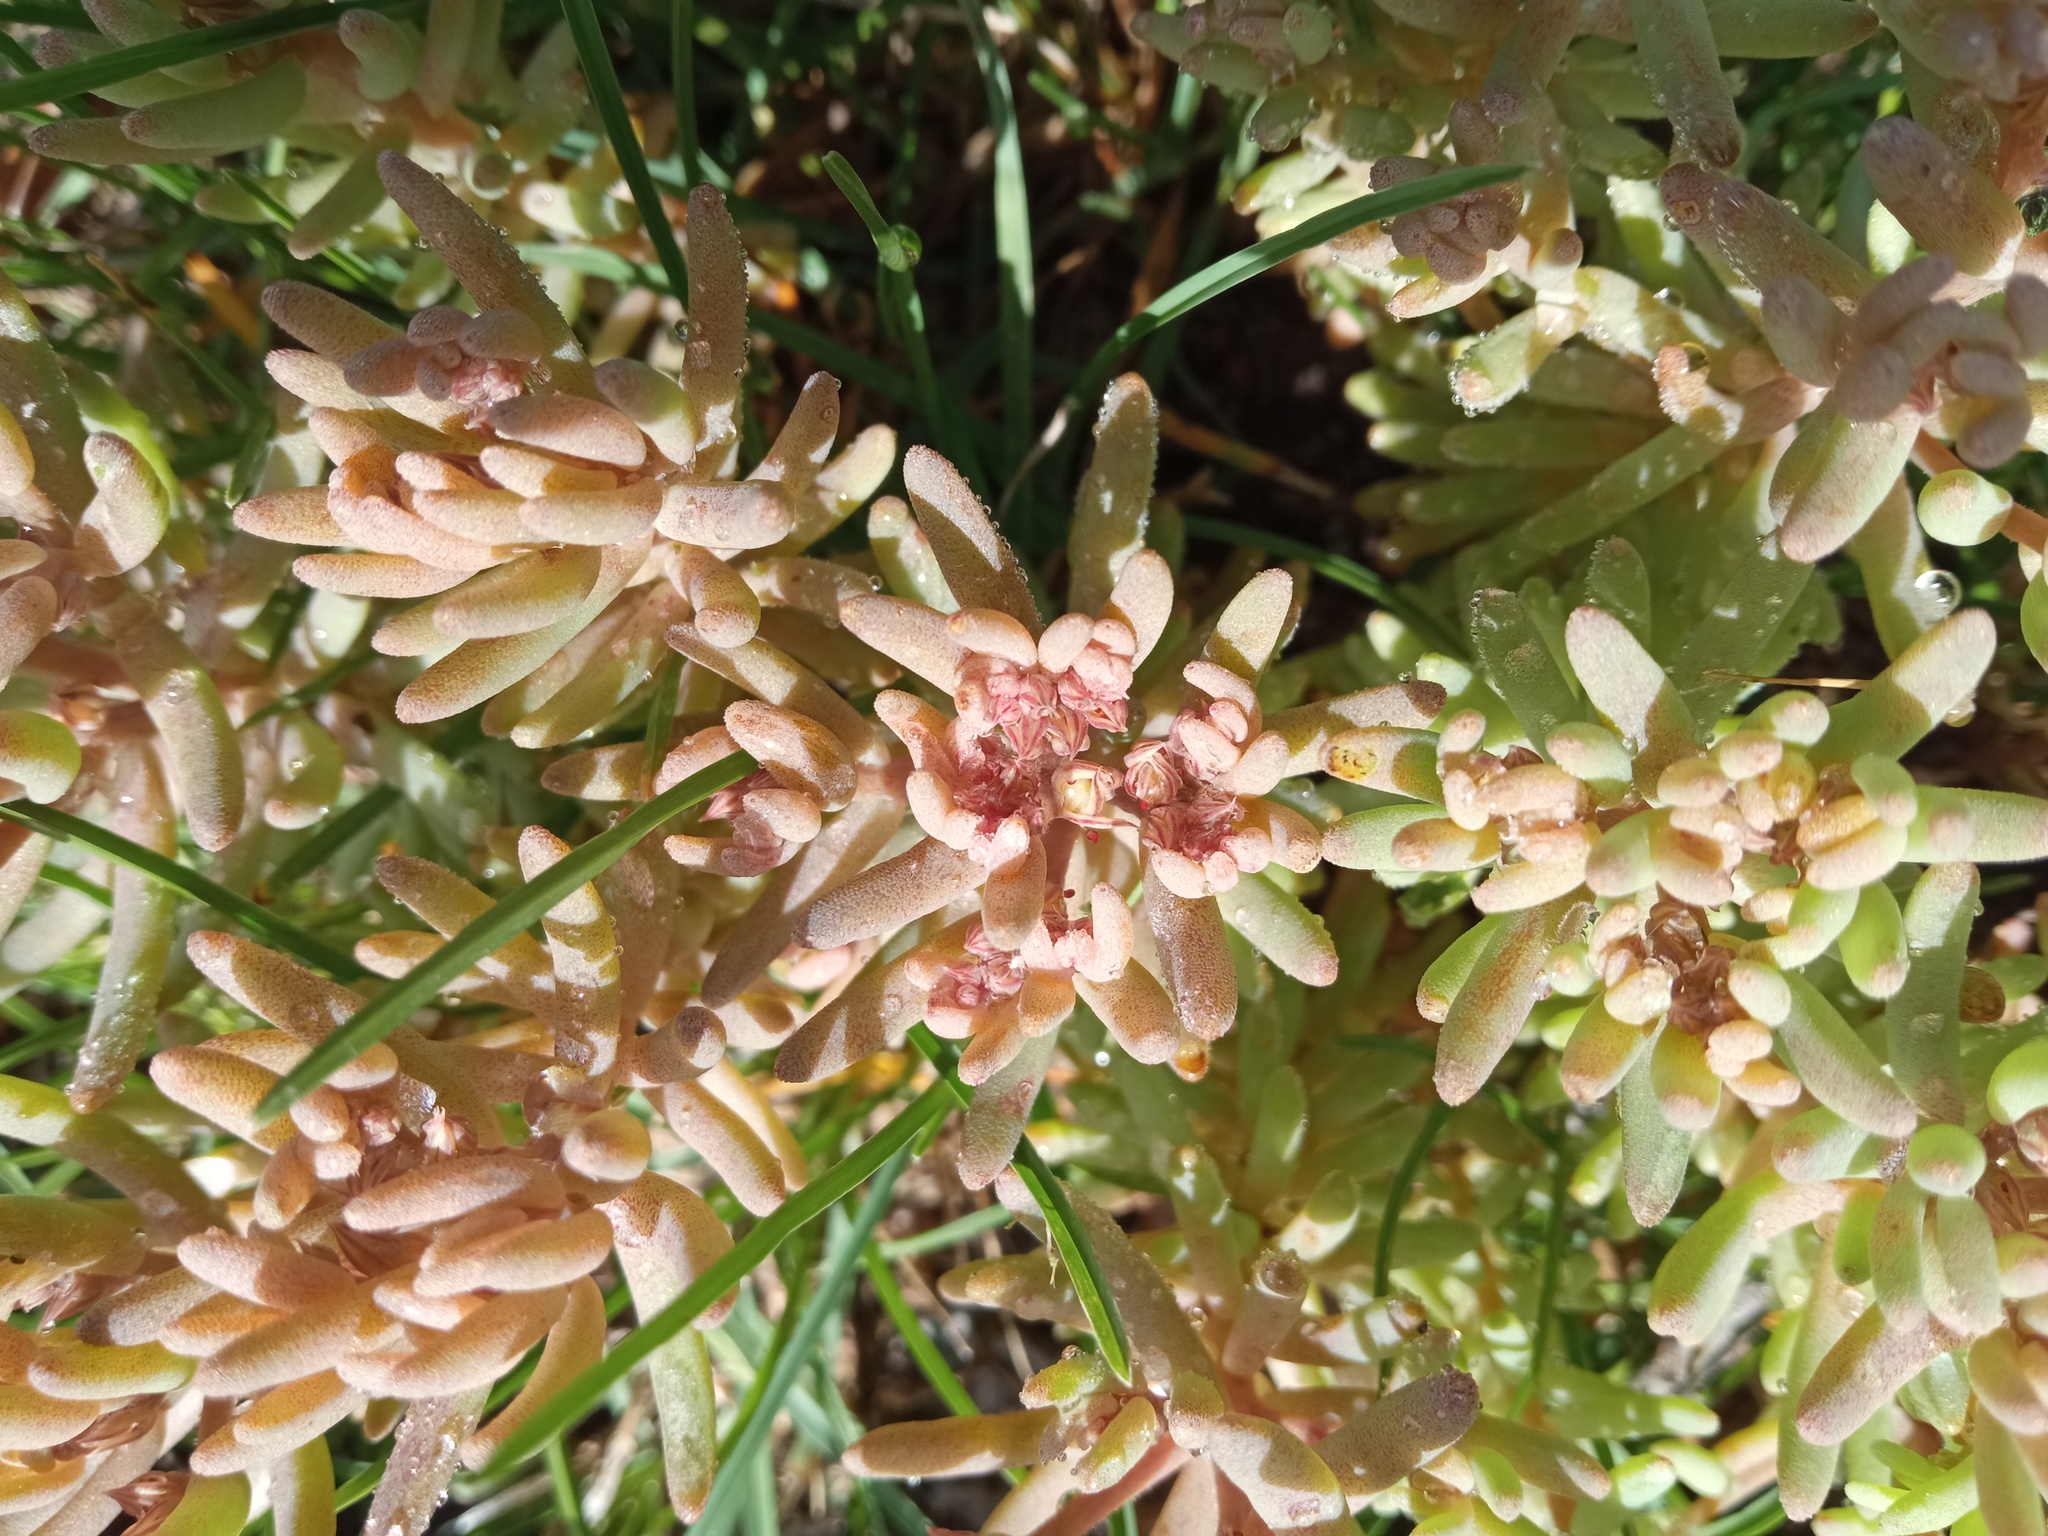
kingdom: Plantae
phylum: Tracheophyta
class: Magnoliopsida
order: Saxifragales
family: Crassulaceae
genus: Sedum
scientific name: Sedum rubens
